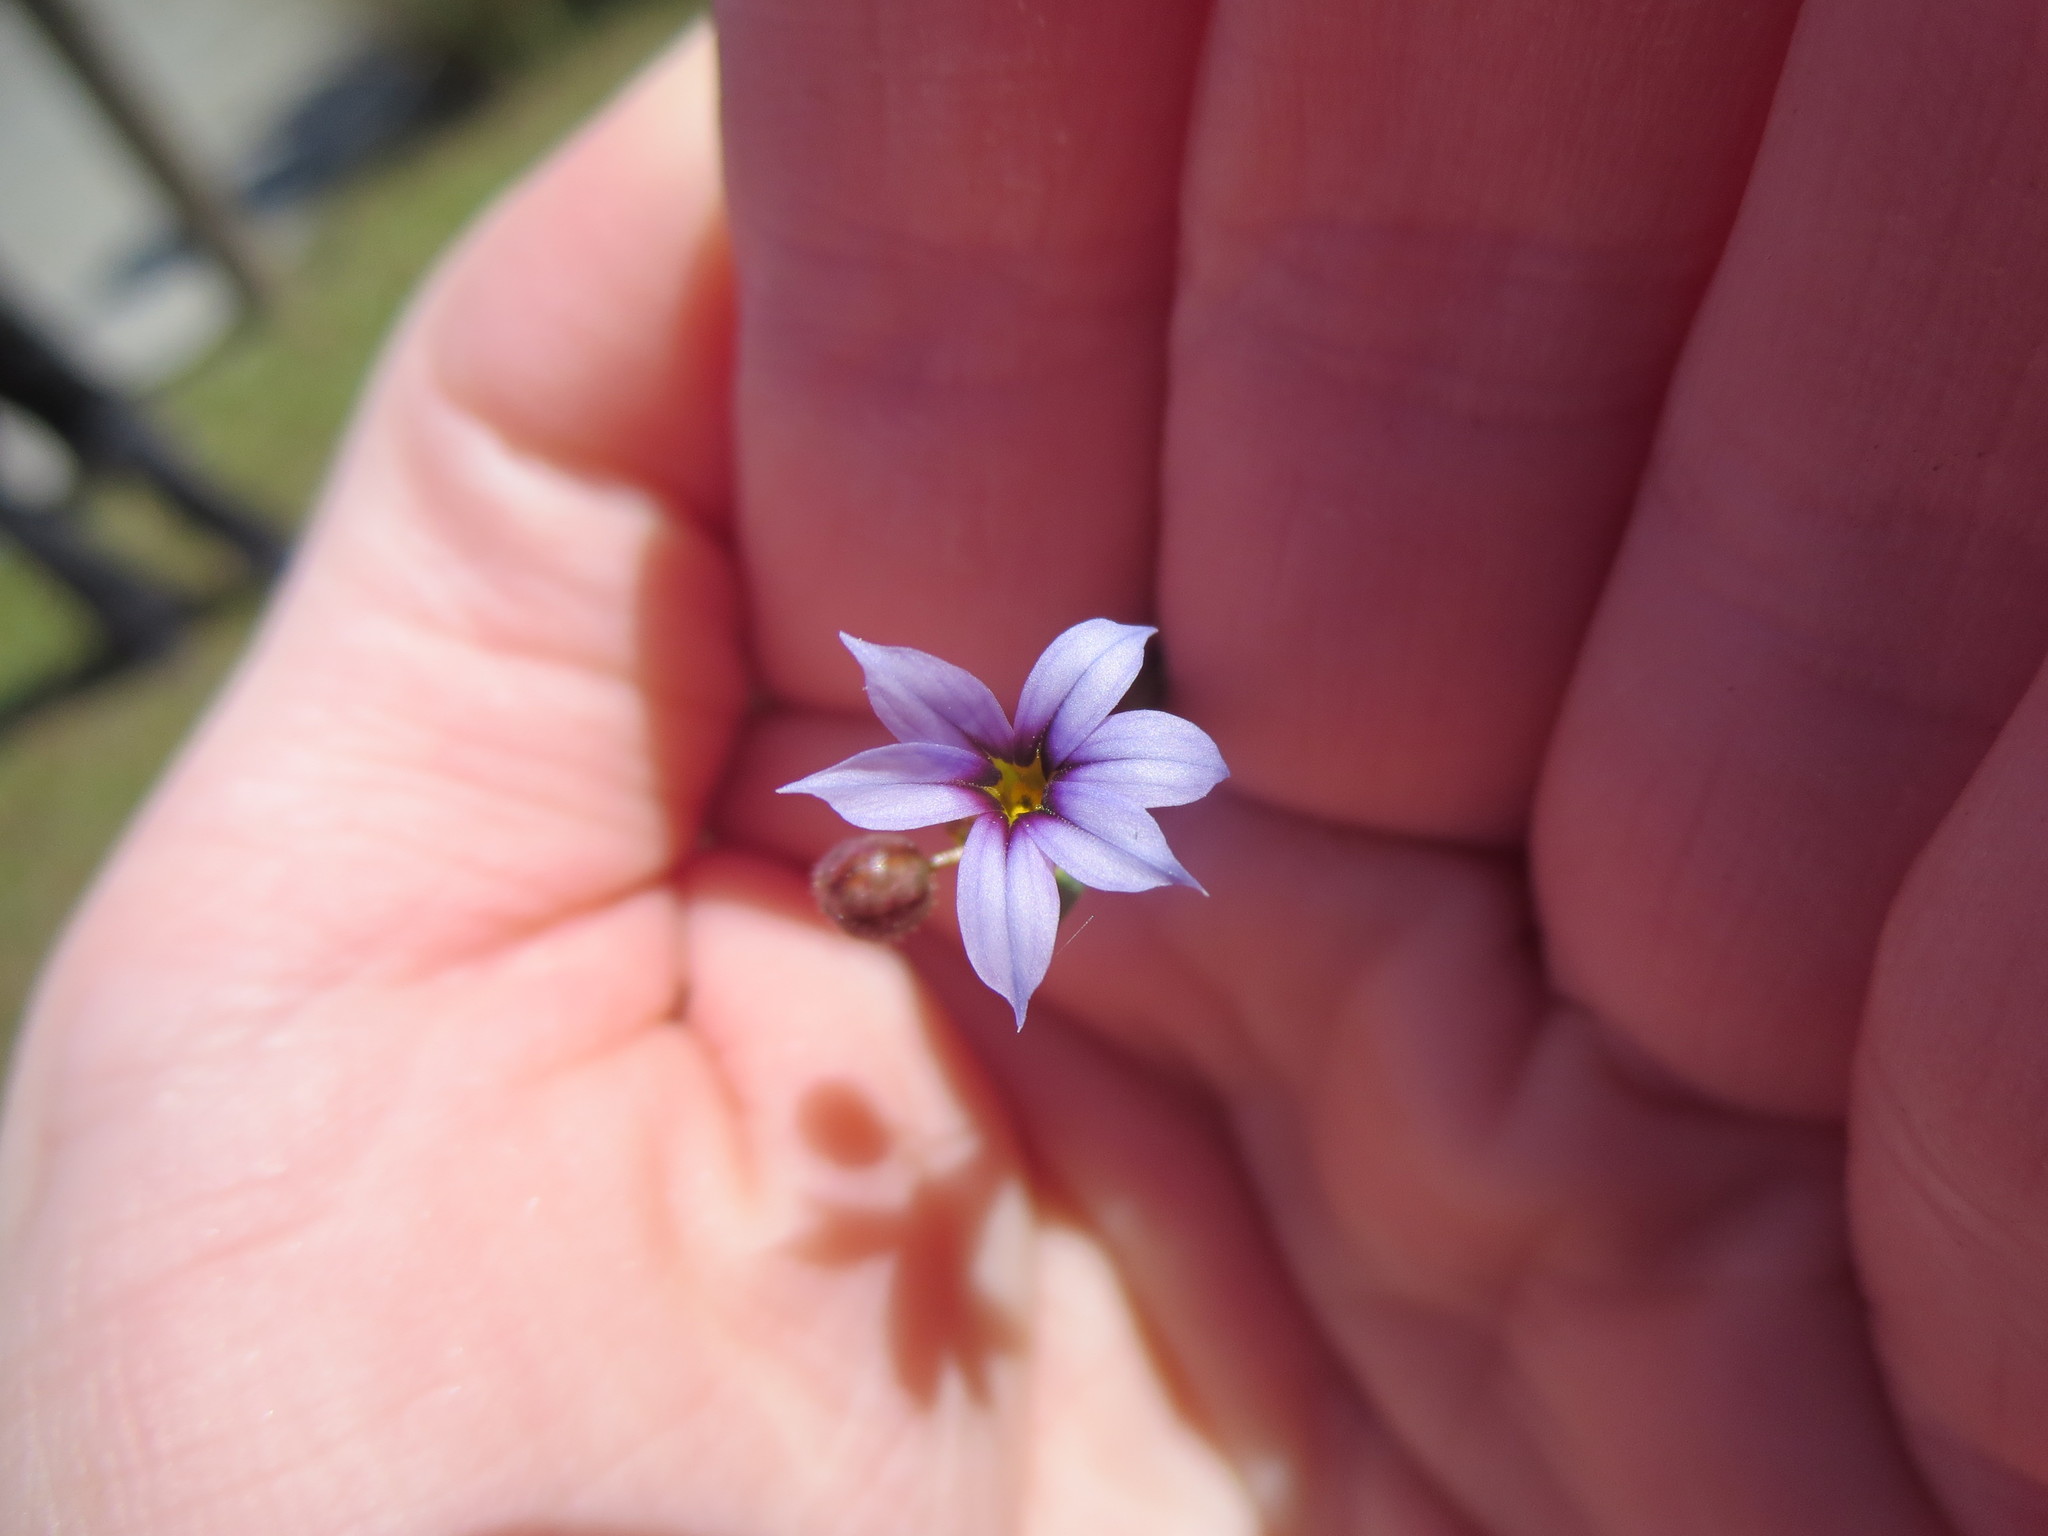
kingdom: Plantae
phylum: Tracheophyta
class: Liliopsida
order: Asparagales
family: Iridaceae
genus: Sisyrinchium
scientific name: Sisyrinchium micranthum
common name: Bermuda pigroot
